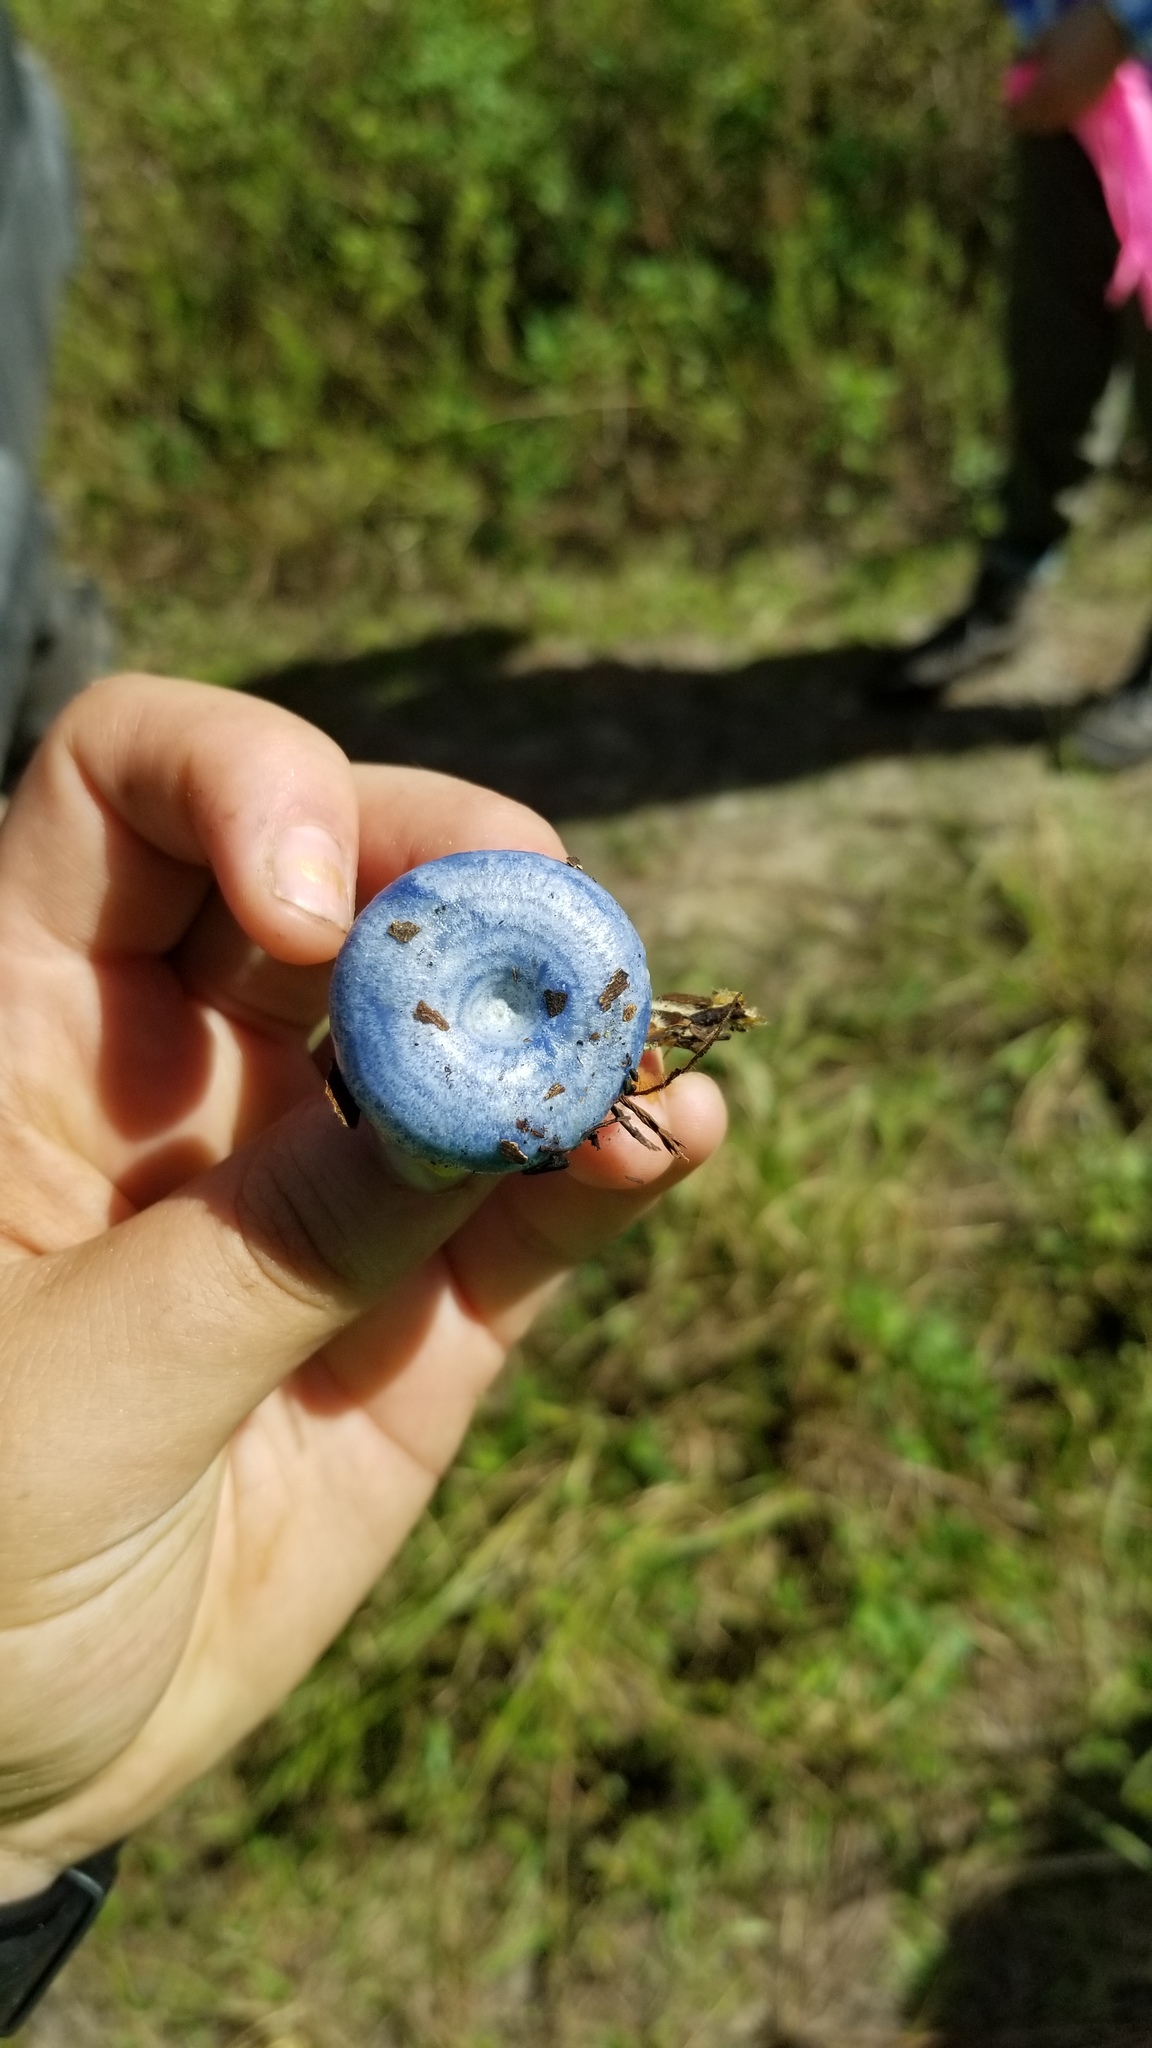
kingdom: Fungi
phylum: Basidiomycota
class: Agaricomycetes
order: Russulales
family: Russulaceae
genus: Lactarius
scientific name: Lactarius indigo
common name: Indigo milk cap
